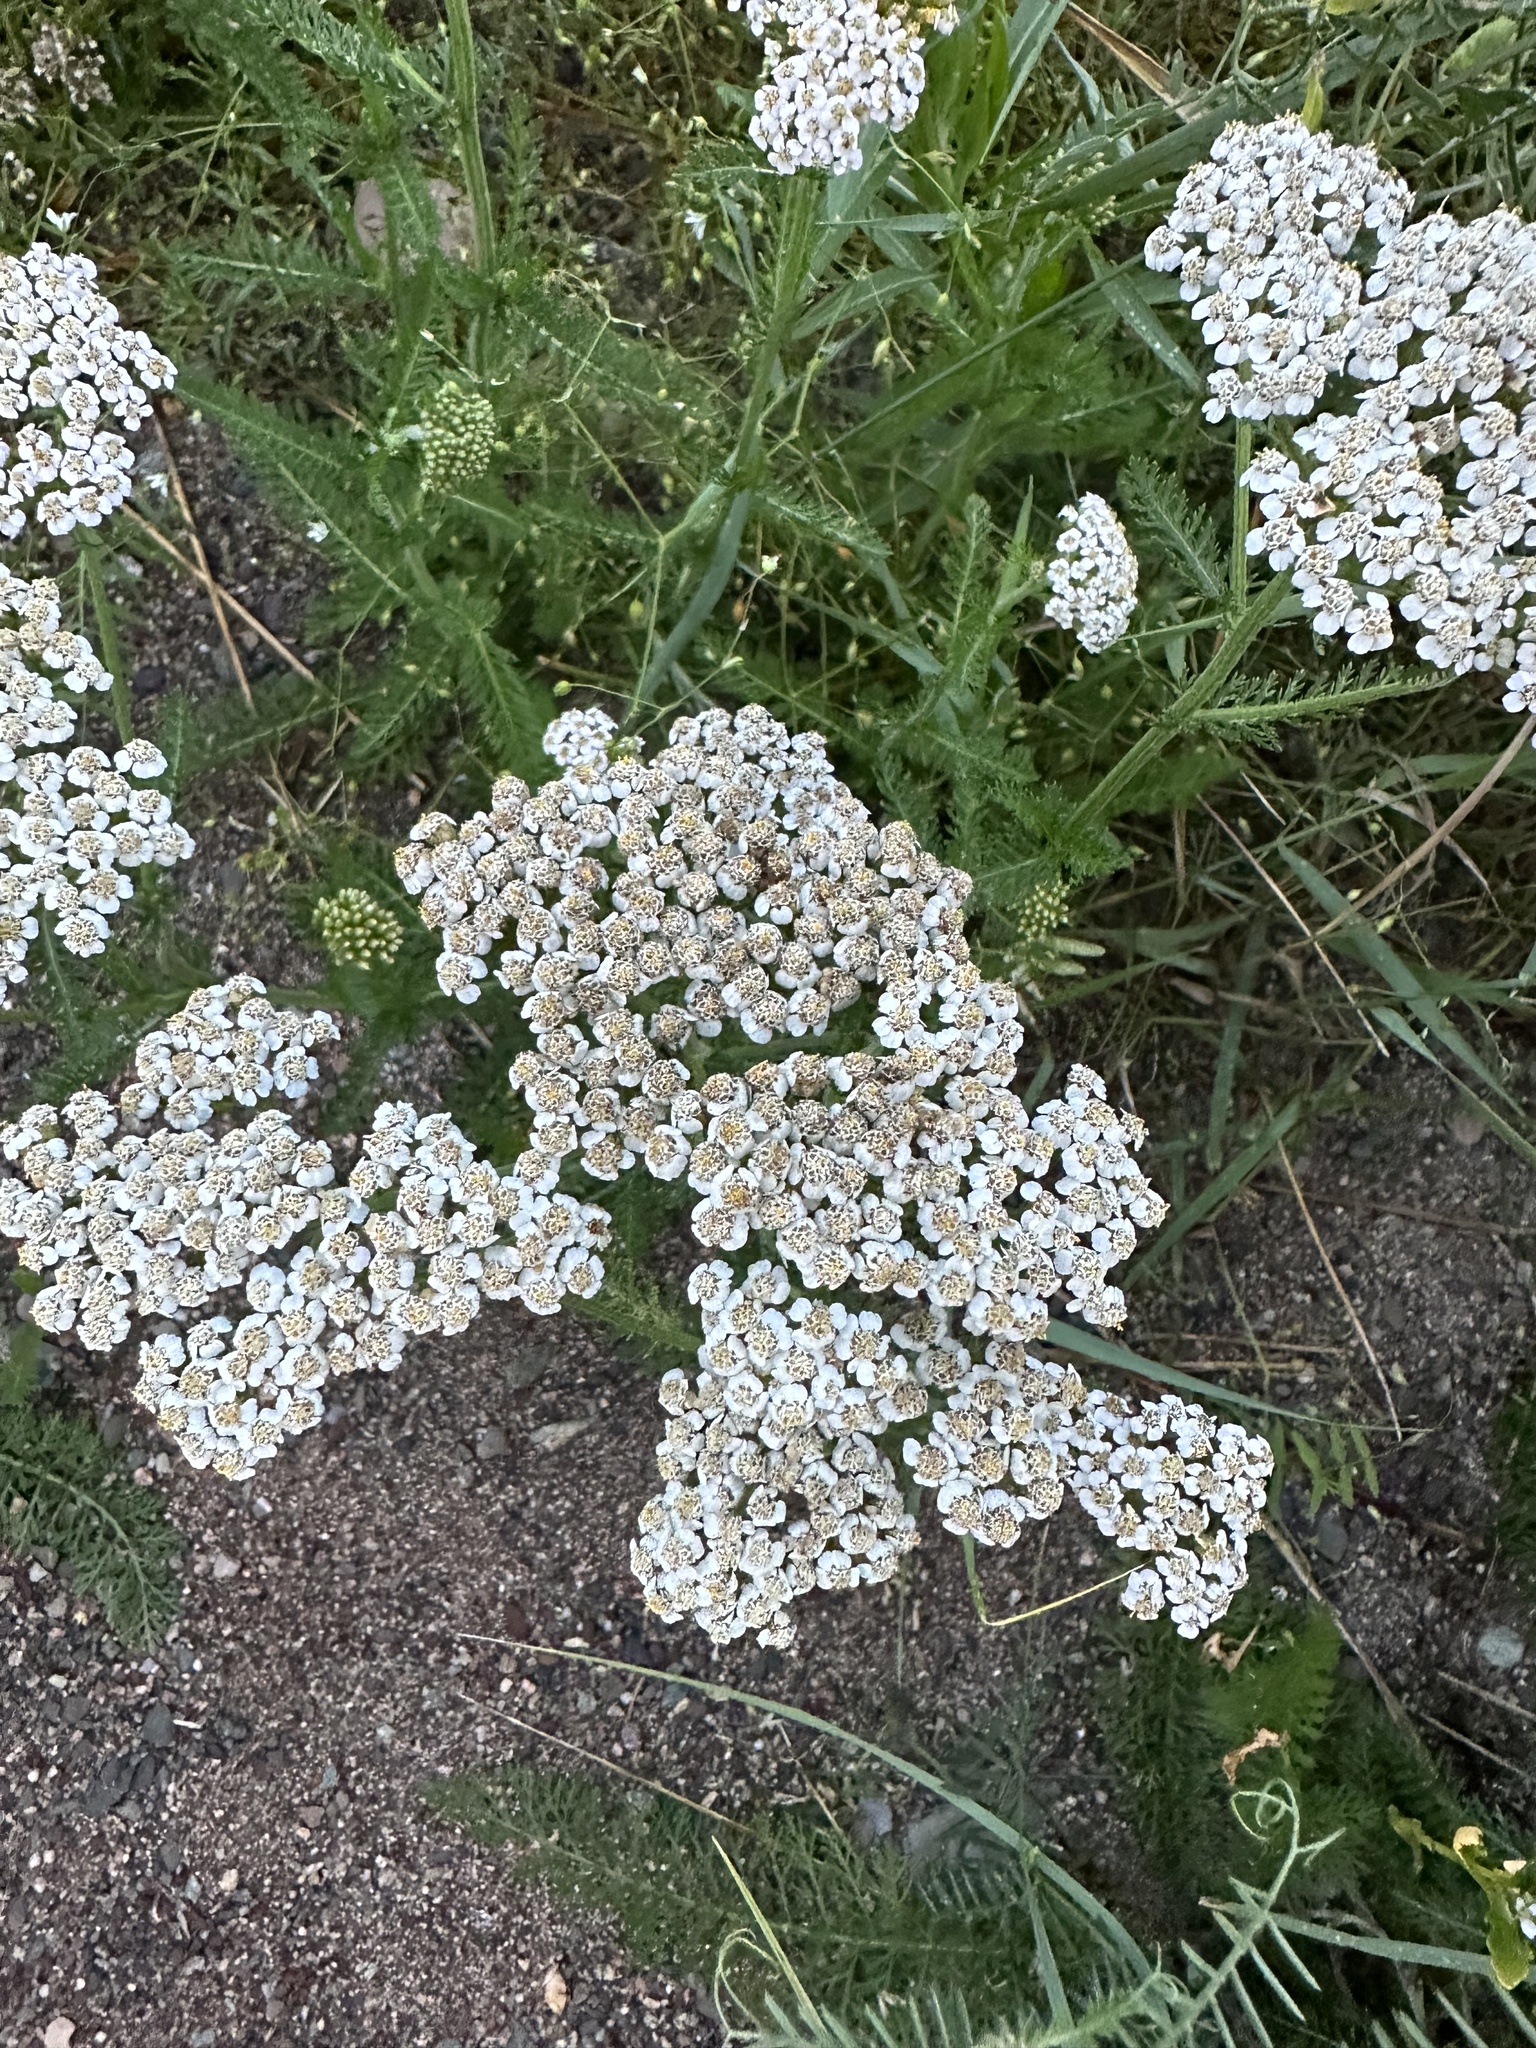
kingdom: Plantae
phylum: Tracheophyta
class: Magnoliopsida
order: Asterales
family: Asteraceae
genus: Achillea
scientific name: Achillea millefolium
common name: Yarrow
